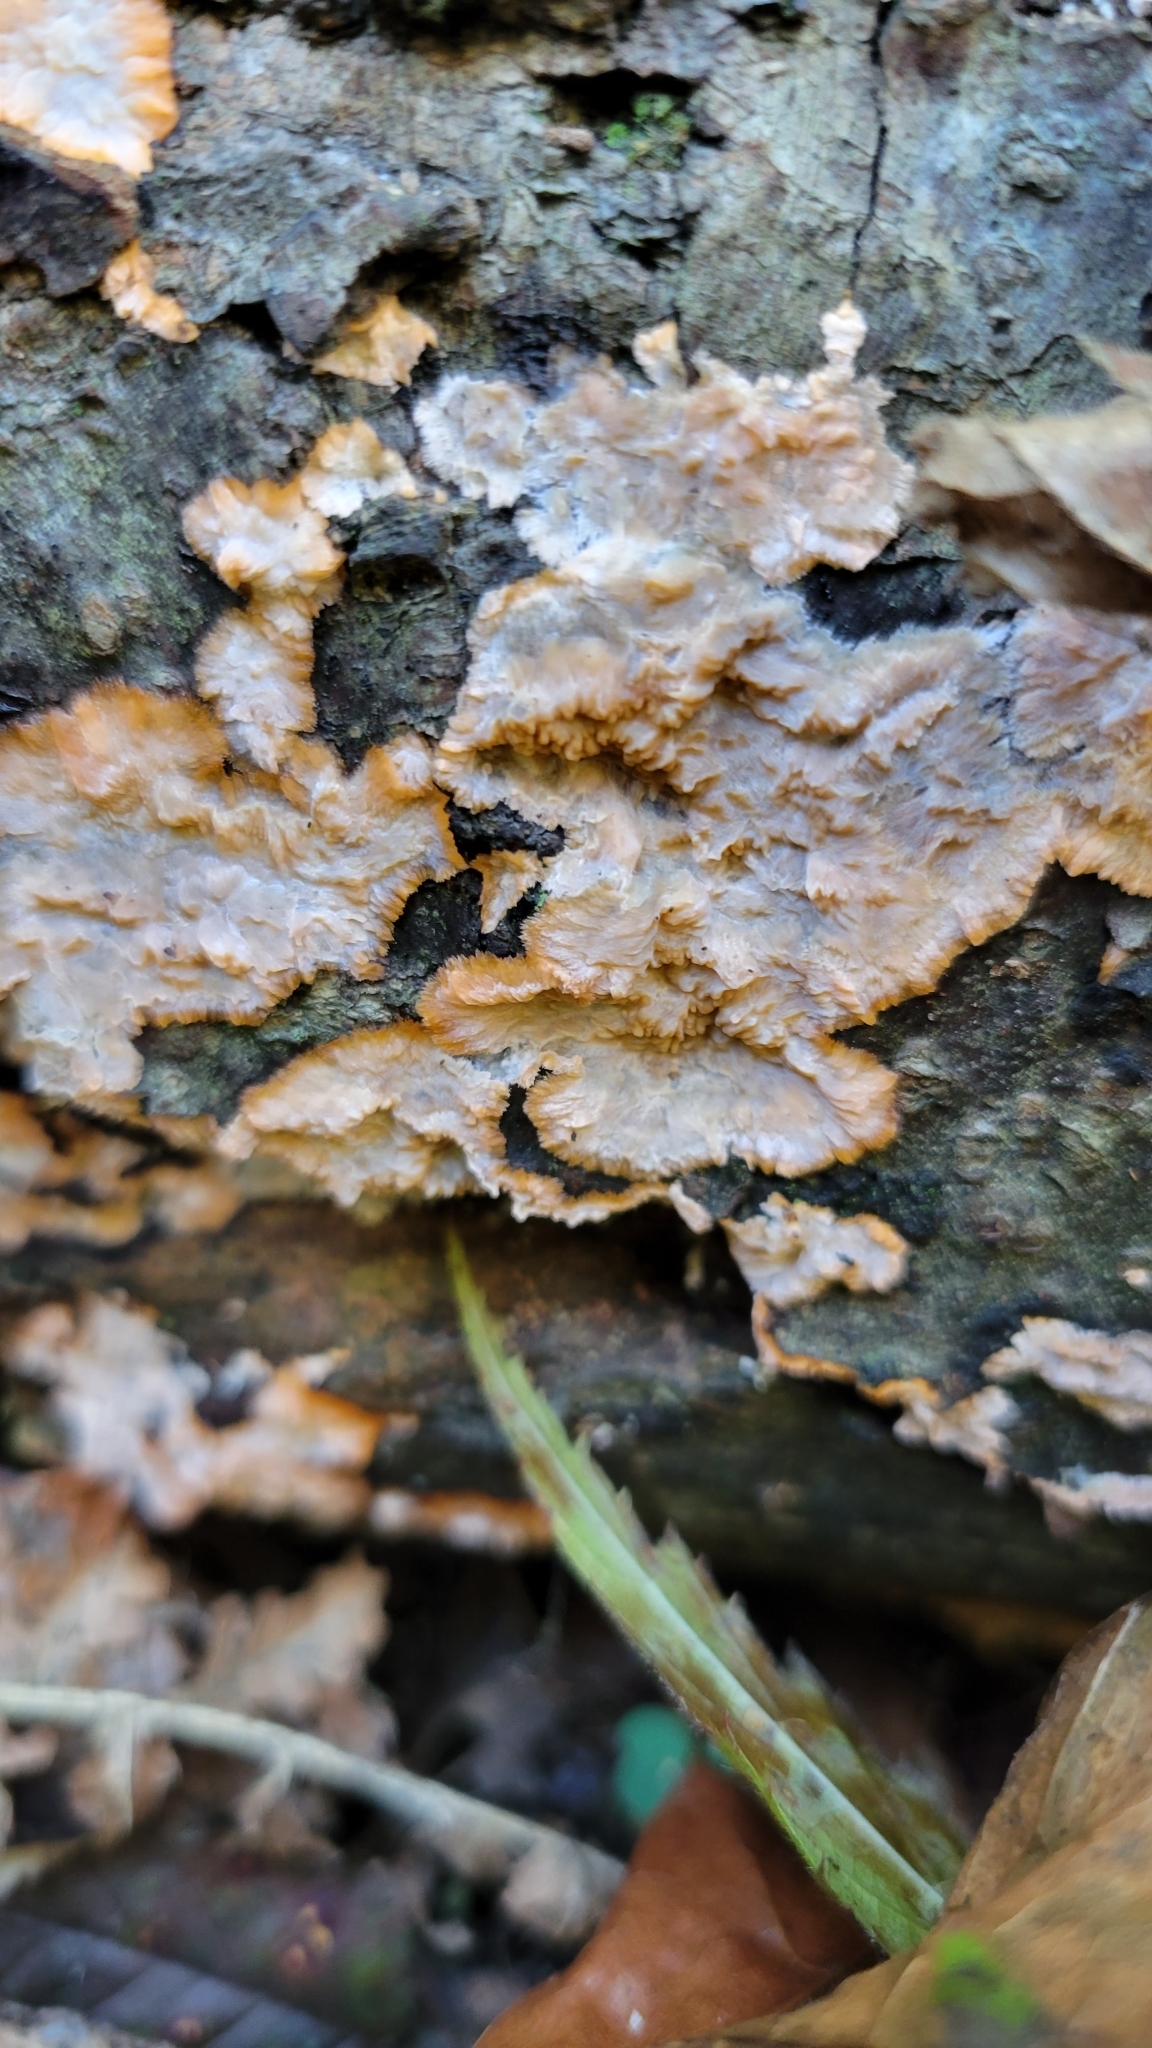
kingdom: Fungi
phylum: Basidiomycota
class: Agaricomycetes
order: Polyporales
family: Meruliaceae
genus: Phlebia
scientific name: Phlebia radiata
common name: Wrinkled crust
